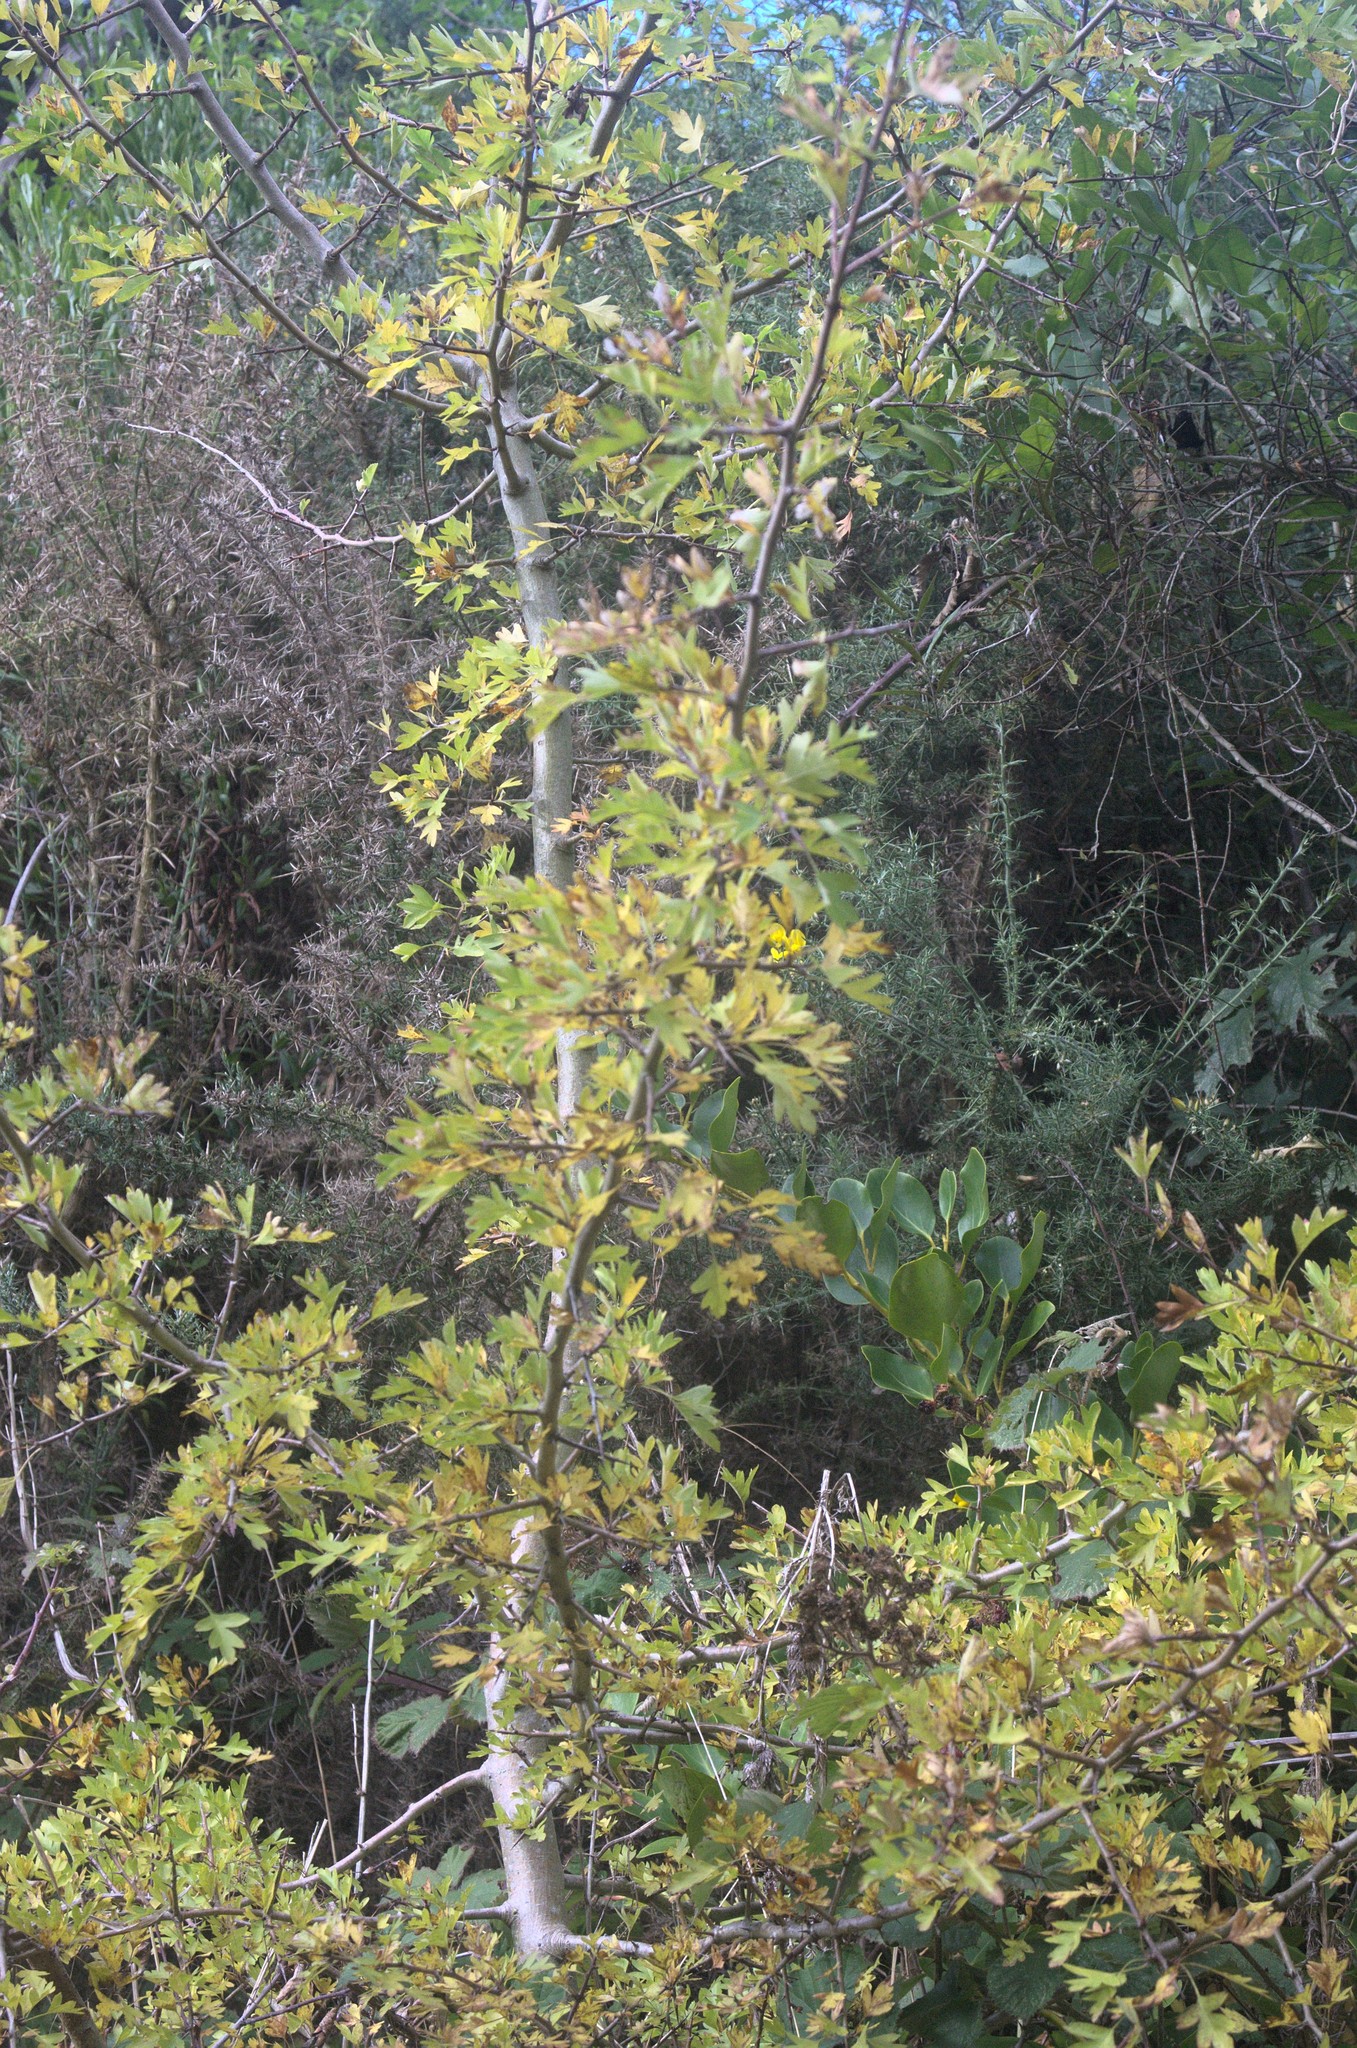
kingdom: Plantae
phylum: Tracheophyta
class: Magnoliopsida
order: Rosales
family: Rosaceae
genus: Crataegus
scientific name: Crataegus monogyna
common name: Hawthorn
